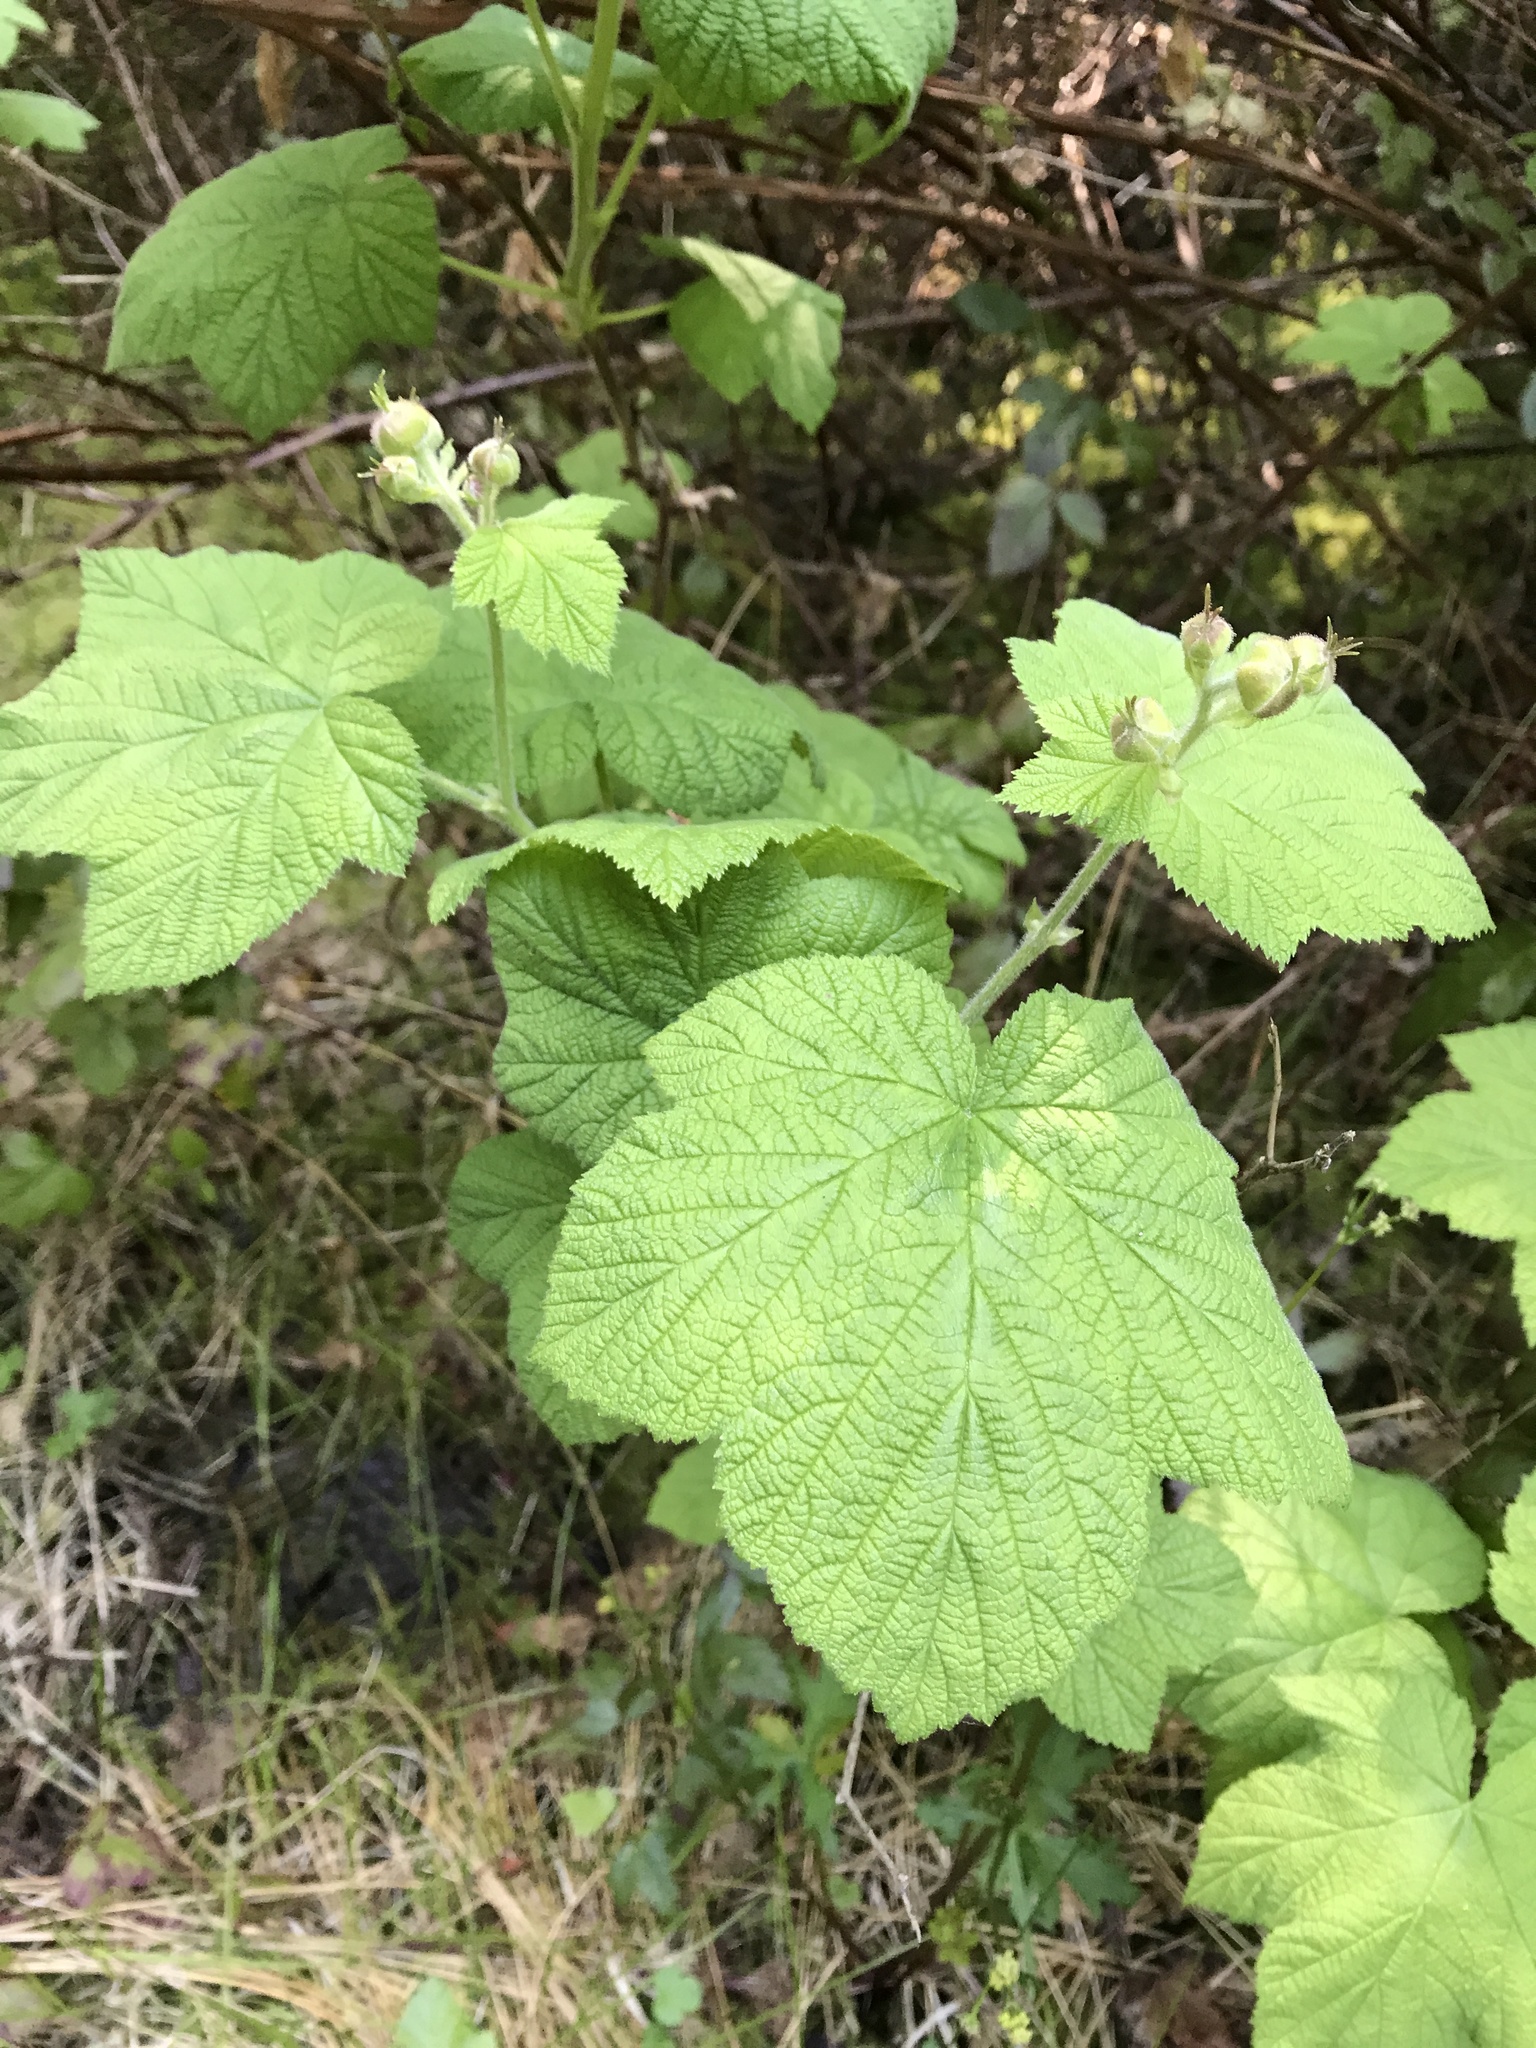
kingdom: Plantae
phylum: Tracheophyta
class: Magnoliopsida
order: Rosales
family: Rosaceae
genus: Rubus
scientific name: Rubus parviflorus
